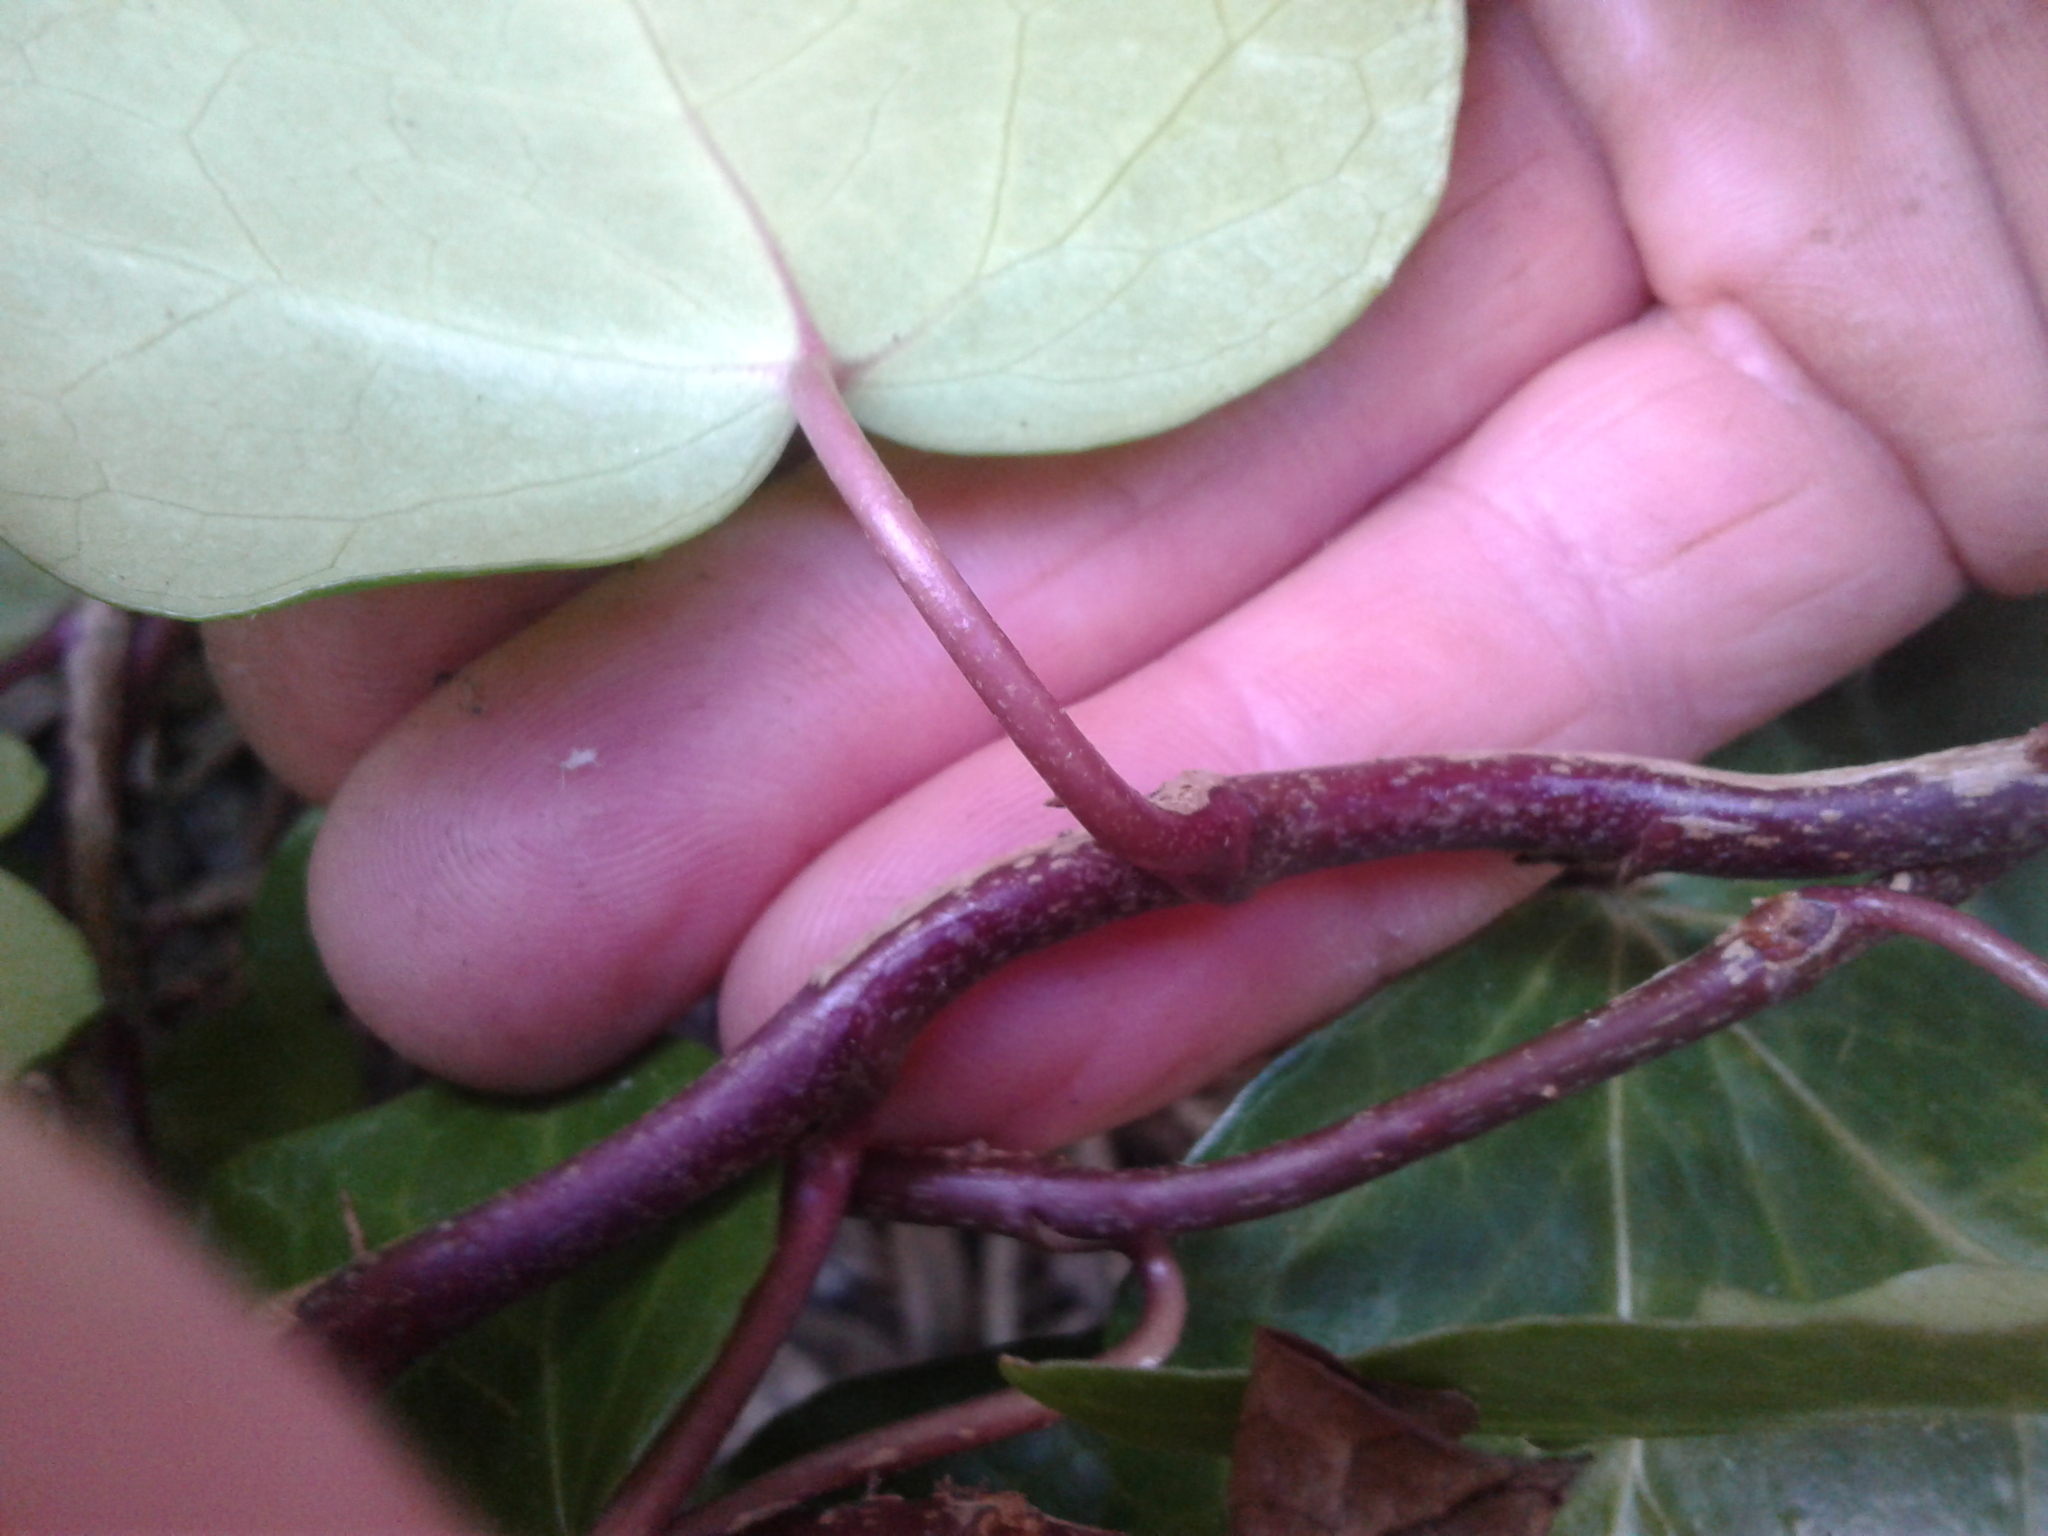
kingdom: Plantae
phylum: Tracheophyta
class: Magnoliopsida
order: Apiales
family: Araliaceae
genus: Hedera
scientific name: Hedera
